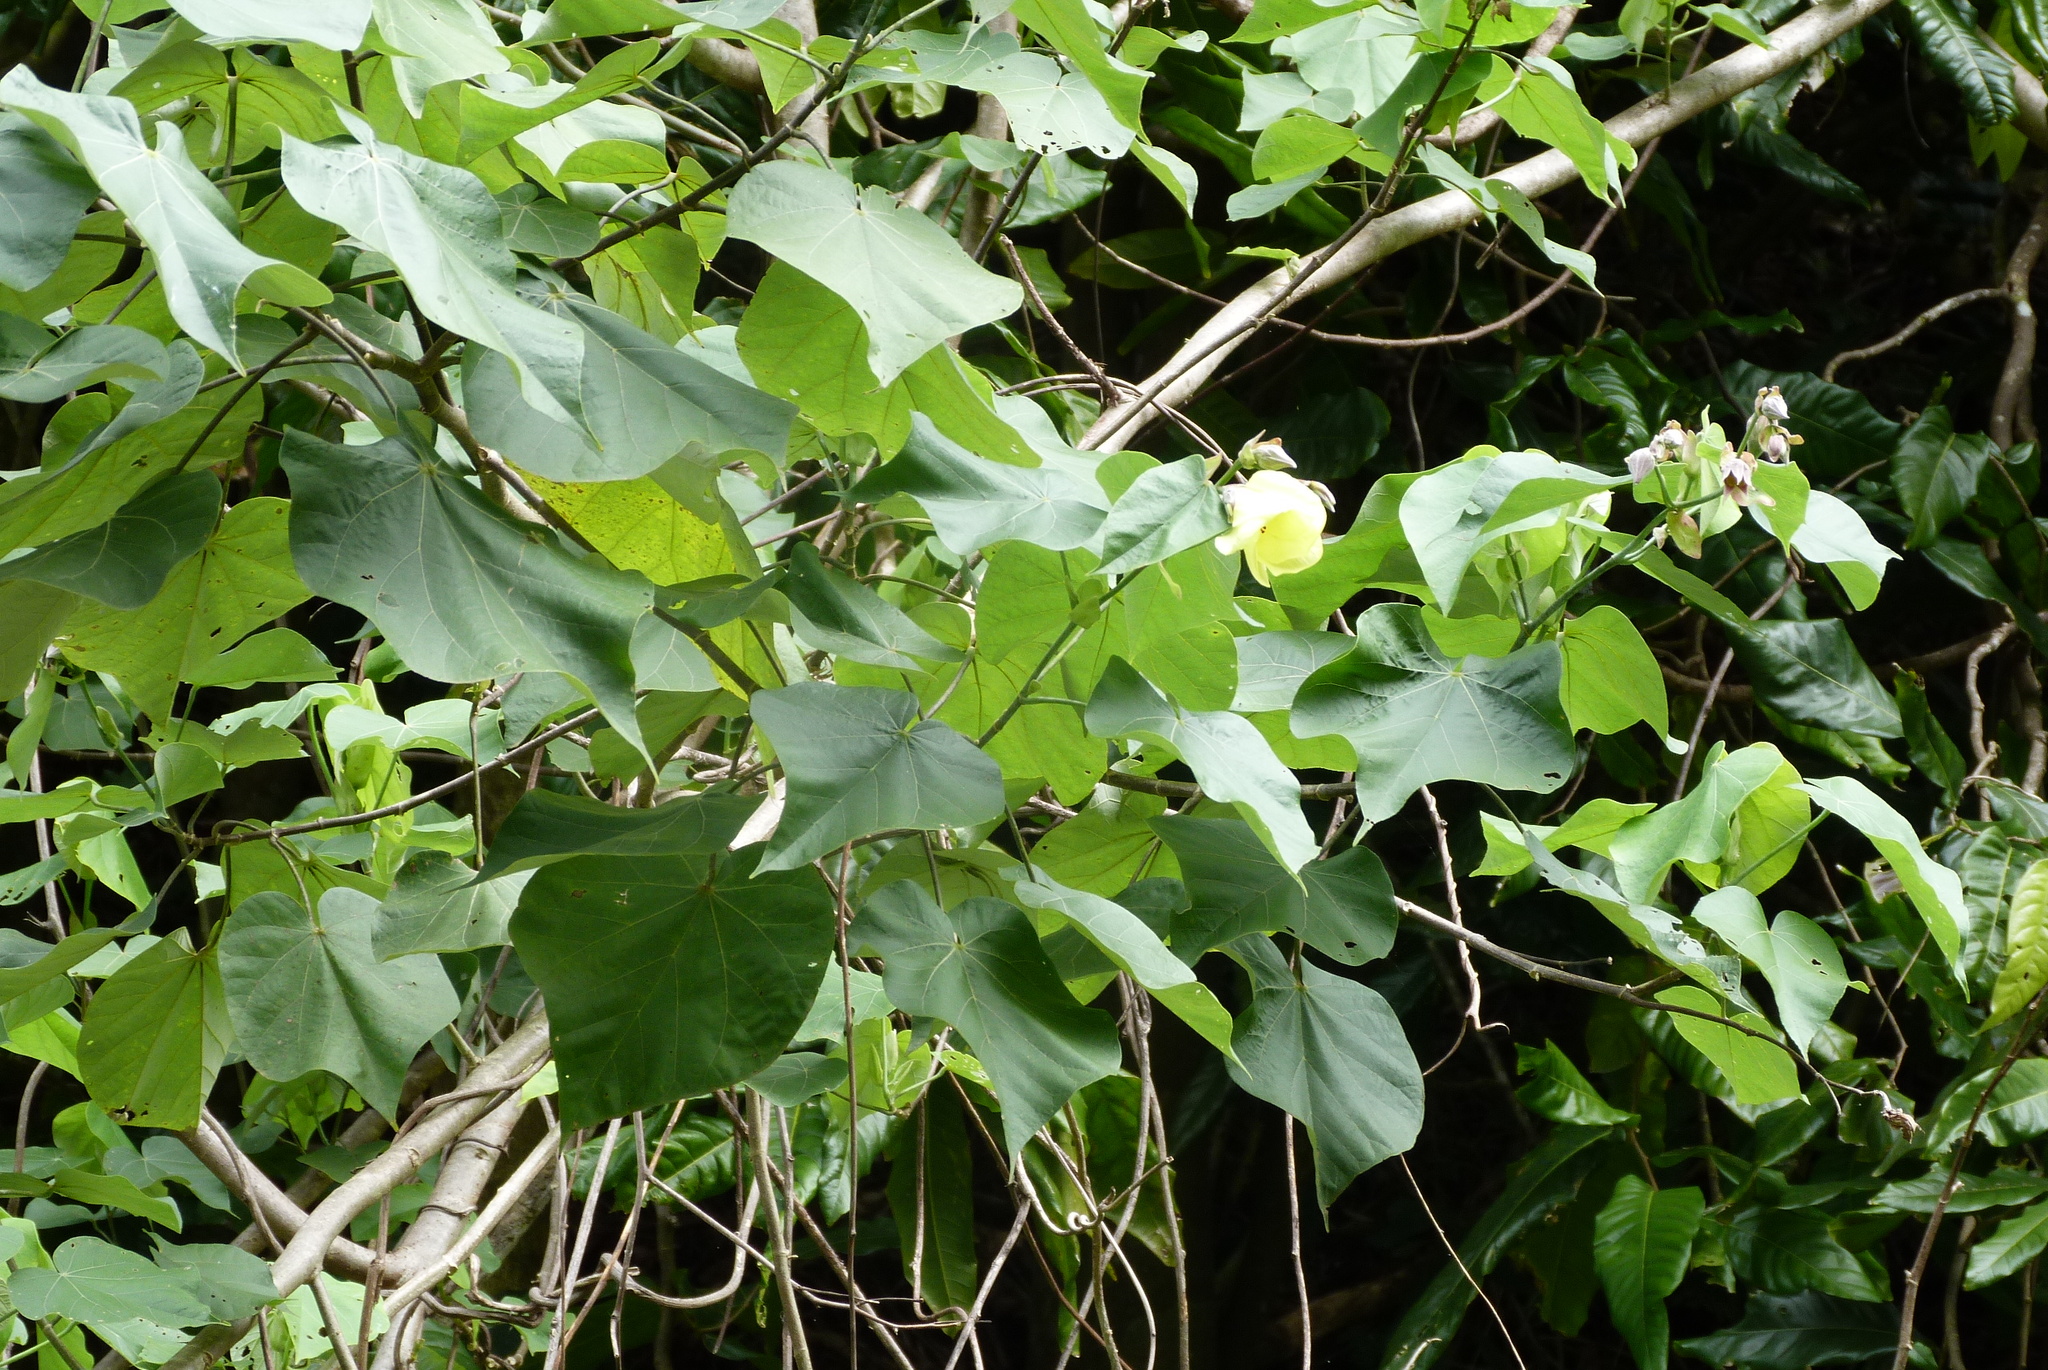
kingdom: Plantae
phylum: Tracheophyta
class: Magnoliopsida
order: Malvales
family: Malvaceae
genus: Talipariti
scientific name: Talipariti tiliaceum
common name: Sea hibiscus
